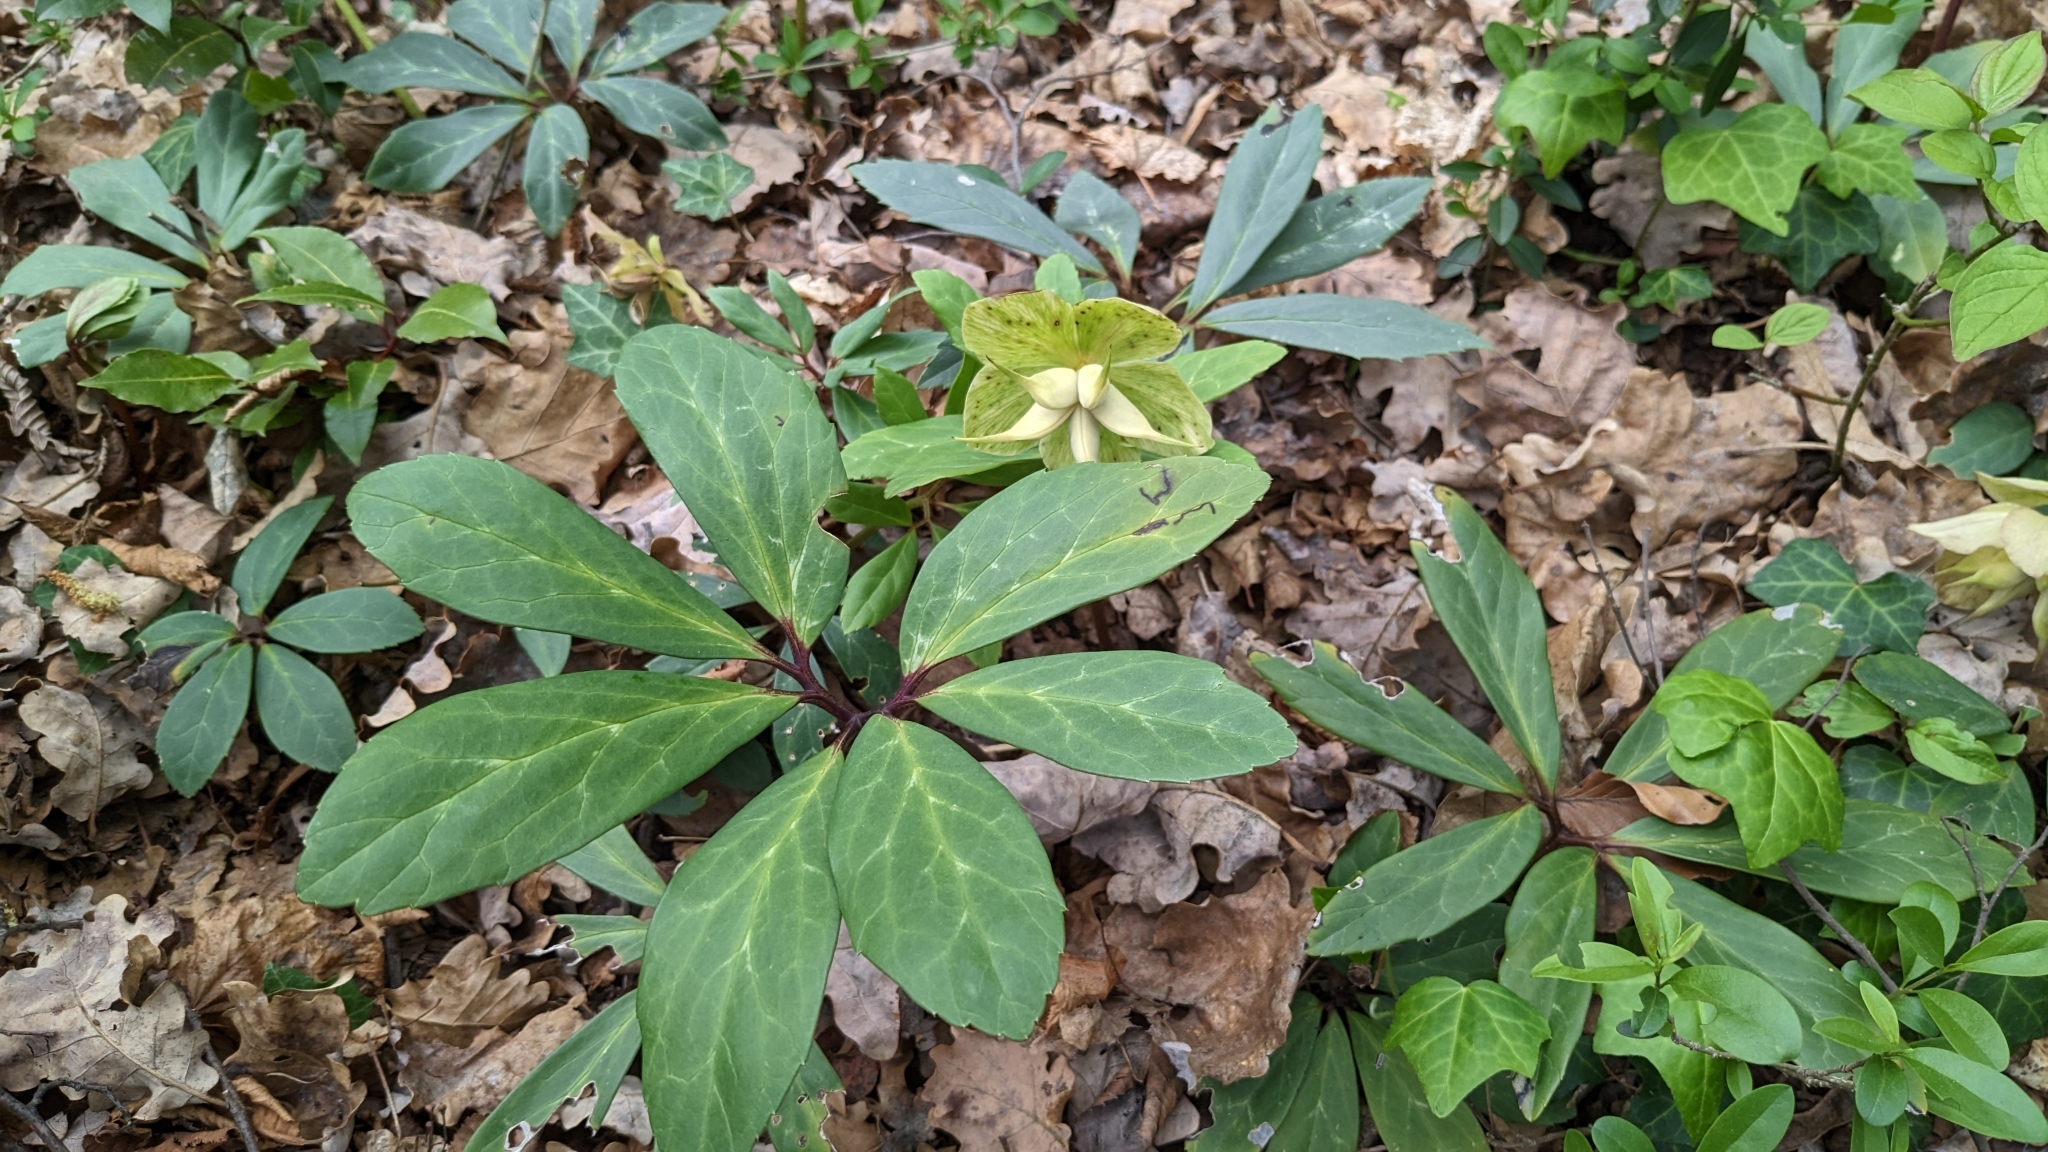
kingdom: Plantae
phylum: Tracheophyta
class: Magnoliopsida
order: Ranunculales
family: Ranunculaceae
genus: Helleborus
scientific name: Helleborus niger
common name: Black hellebore
